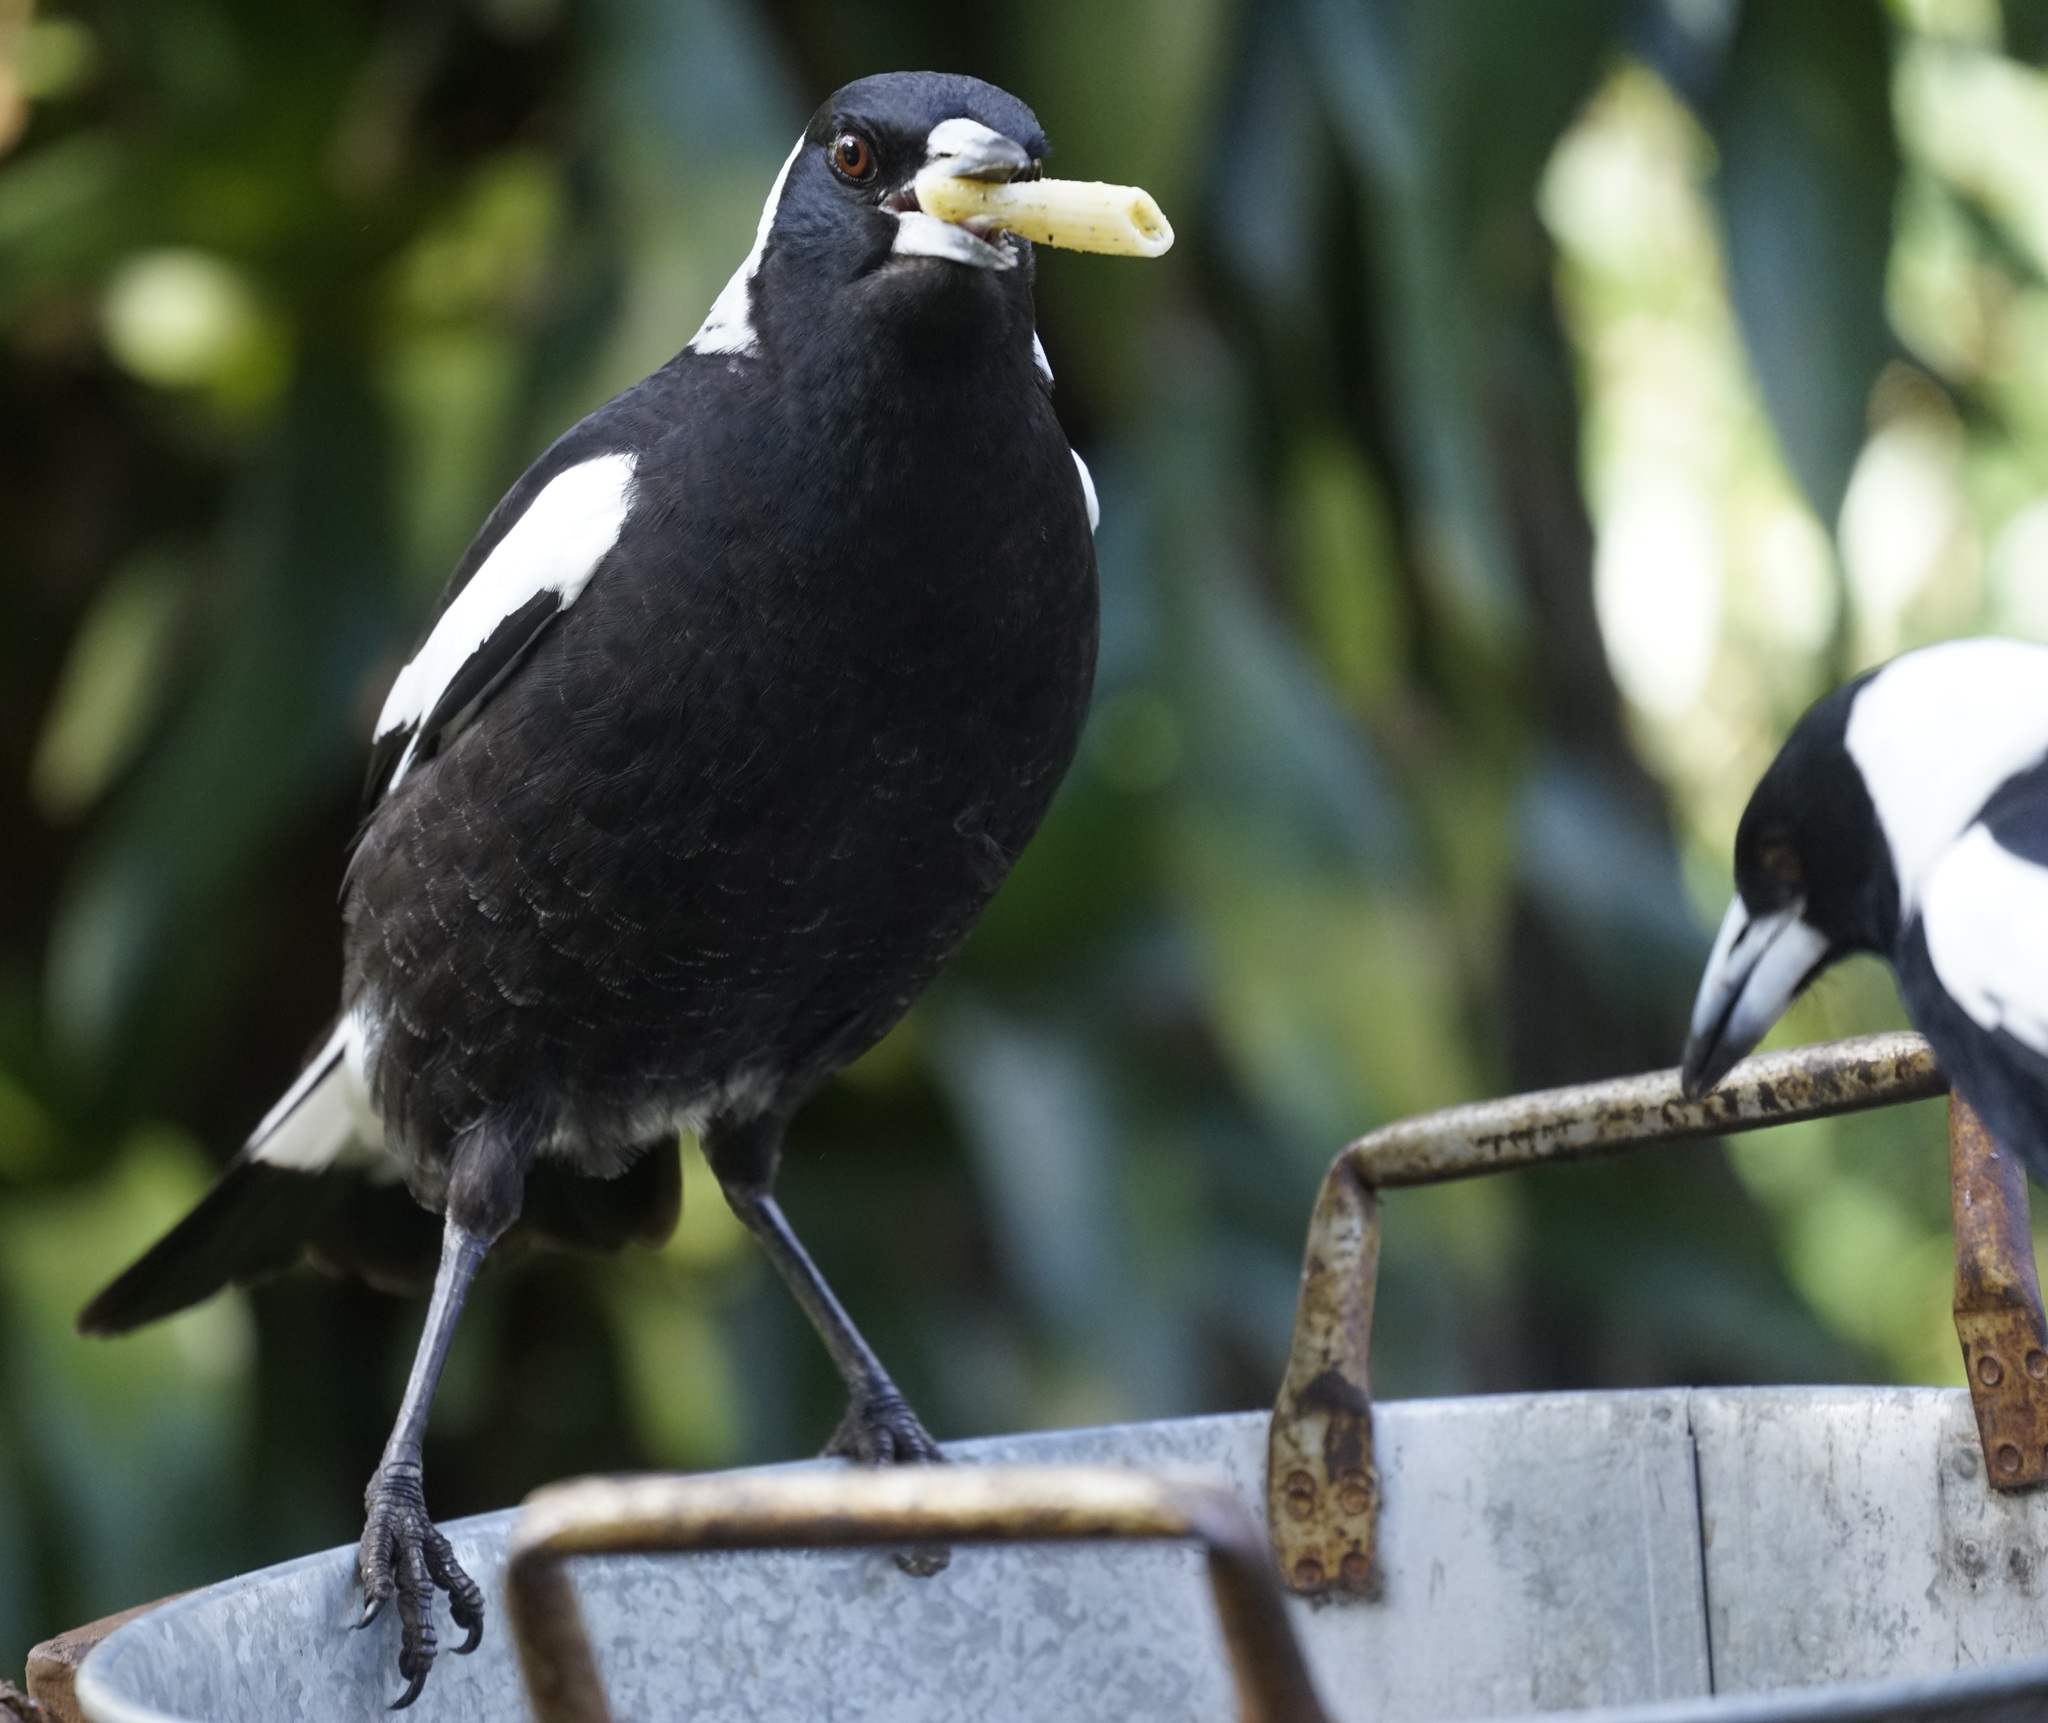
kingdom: Animalia
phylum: Chordata
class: Aves
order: Passeriformes
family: Cracticidae
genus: Gymnorhina
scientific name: Gymnorhina tibicen
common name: Australian magpie
